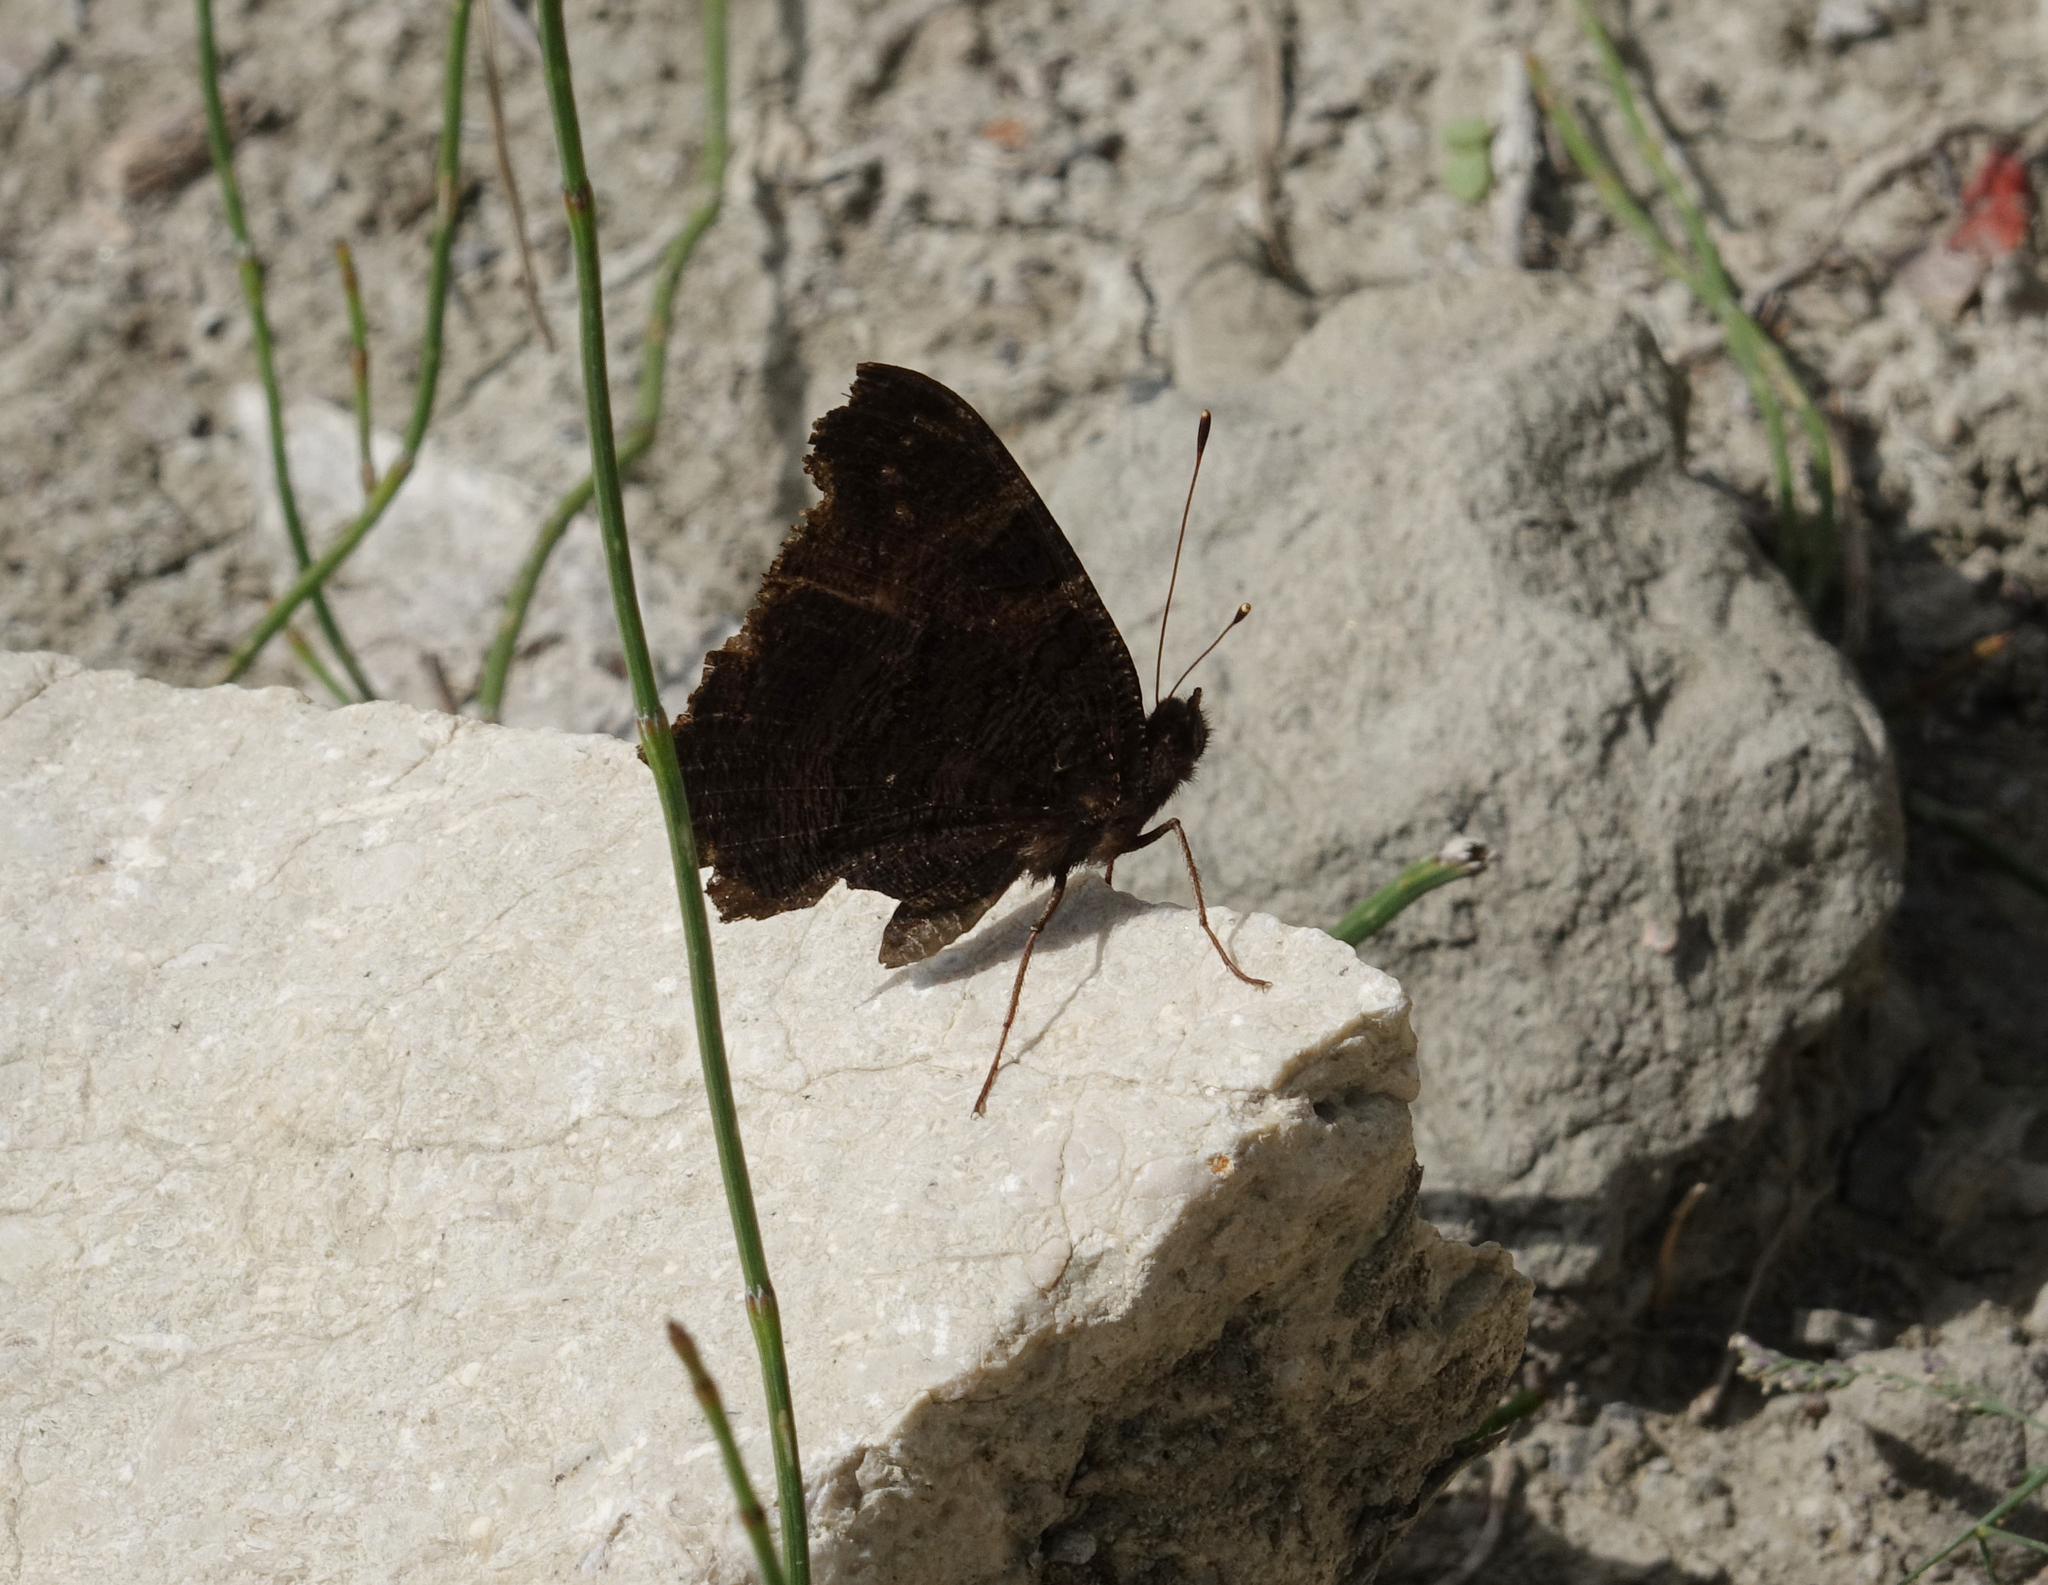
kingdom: Animalia
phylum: Arthropoda
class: Insecta
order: Lepidoptera
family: Nymphalidae
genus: Aglais
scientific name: Aglais io
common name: Peacock
